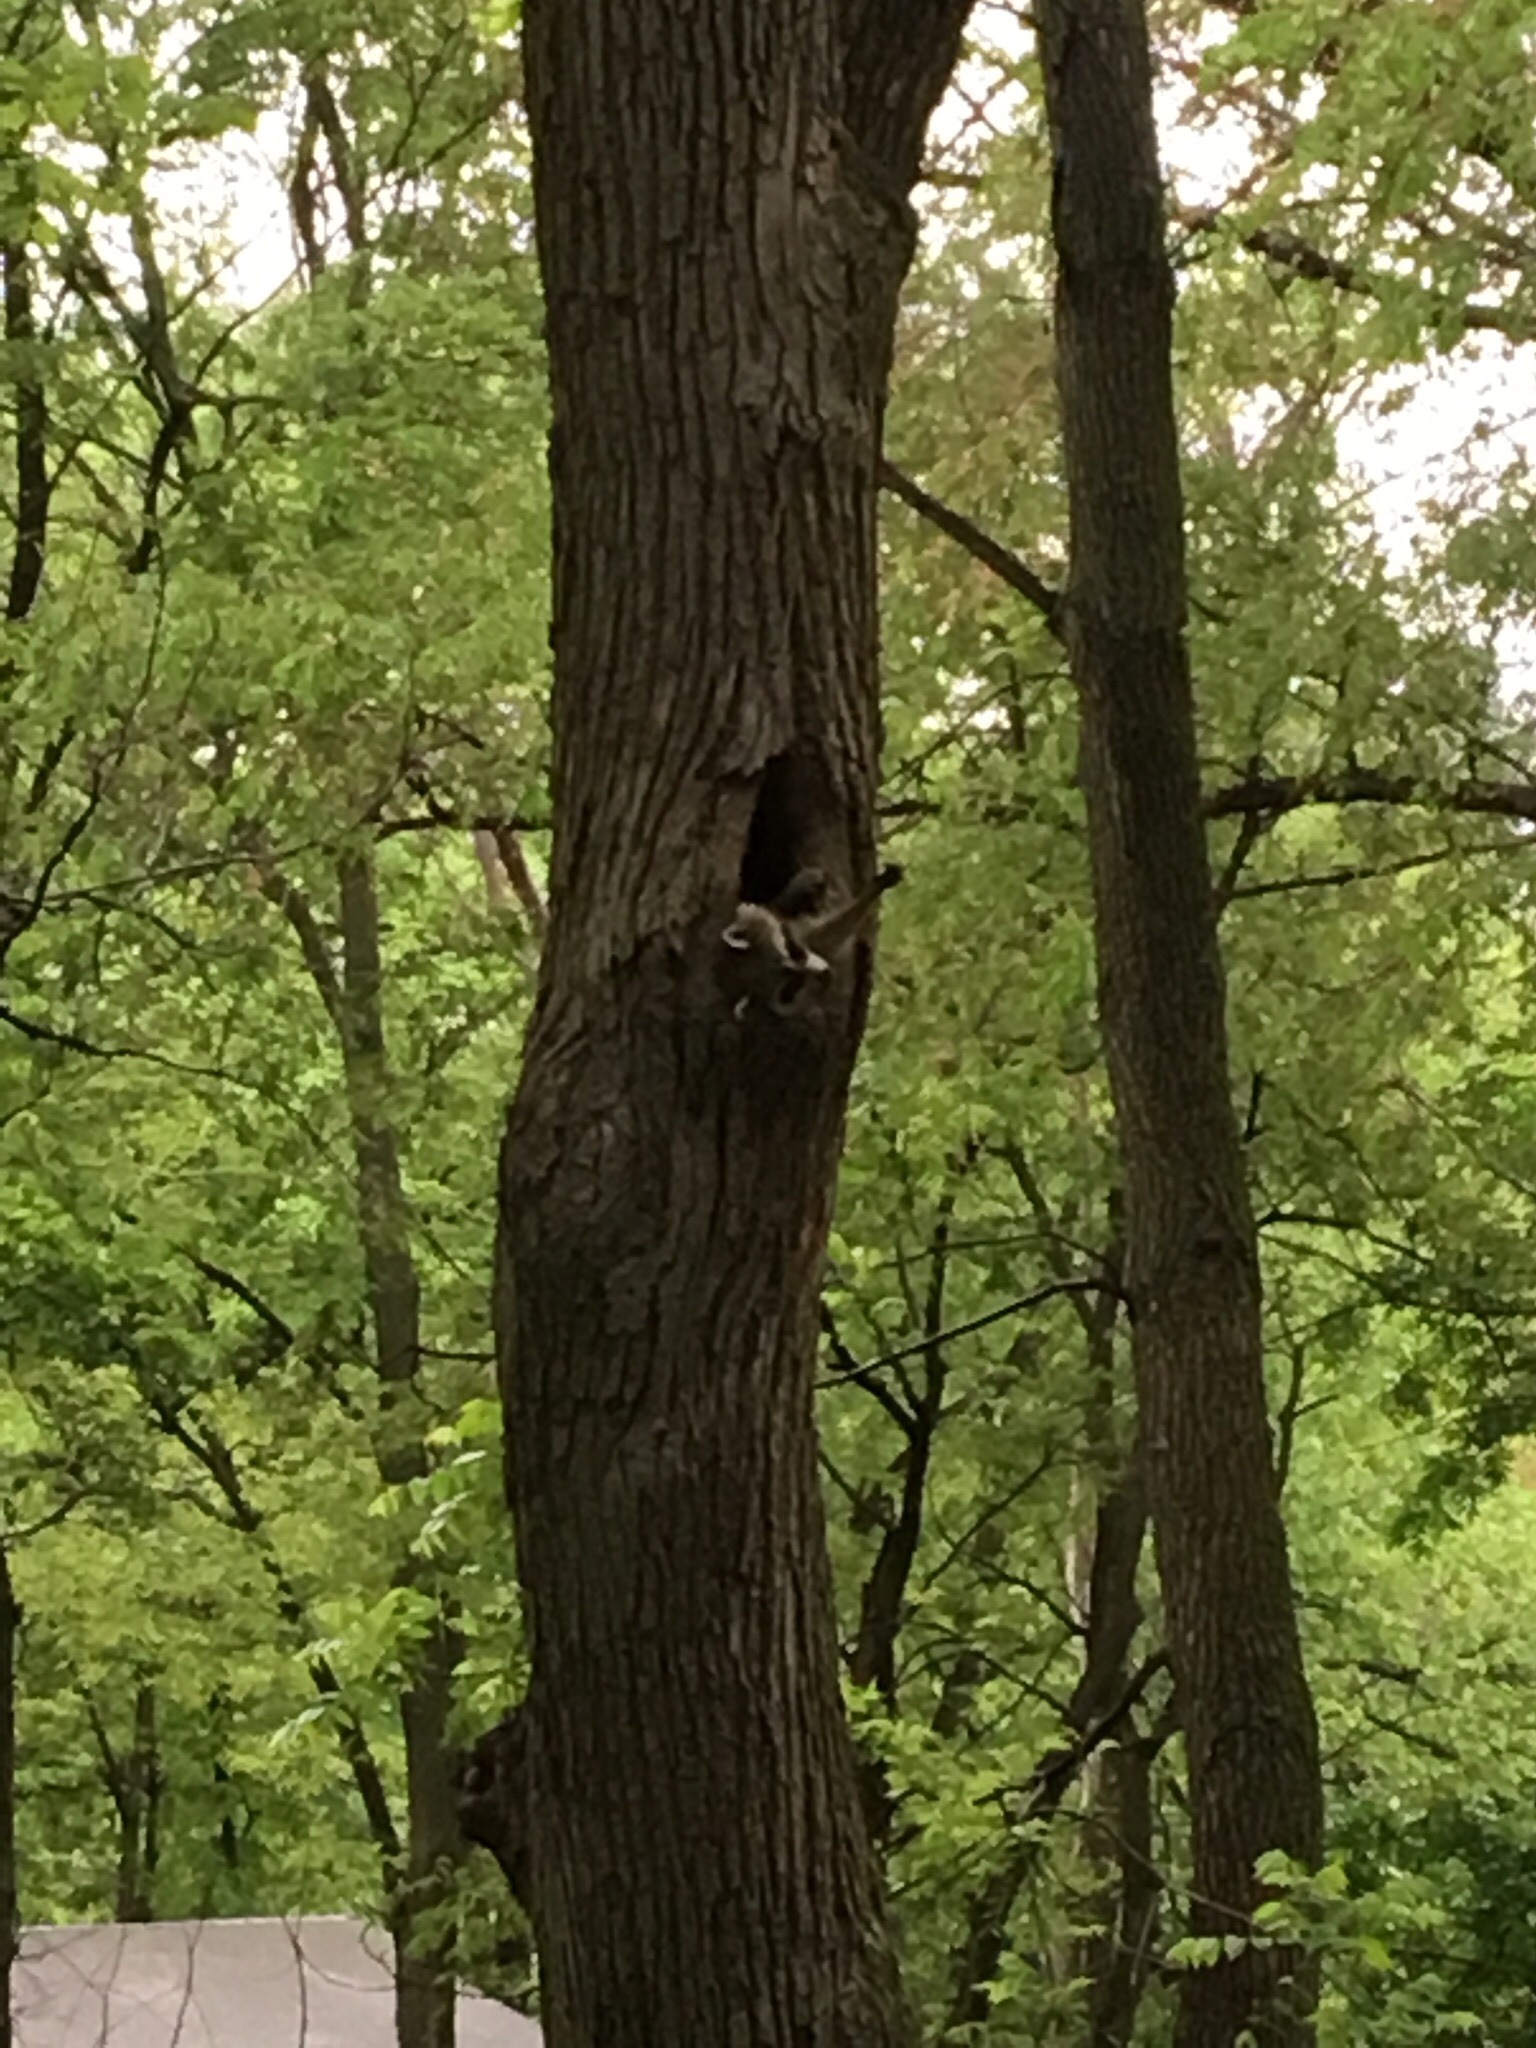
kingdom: Animalia
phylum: Chordata
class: Mammalia
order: Carnivora
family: Procyonidae
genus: Procyon
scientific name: Procyon lotor
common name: Raccoon
